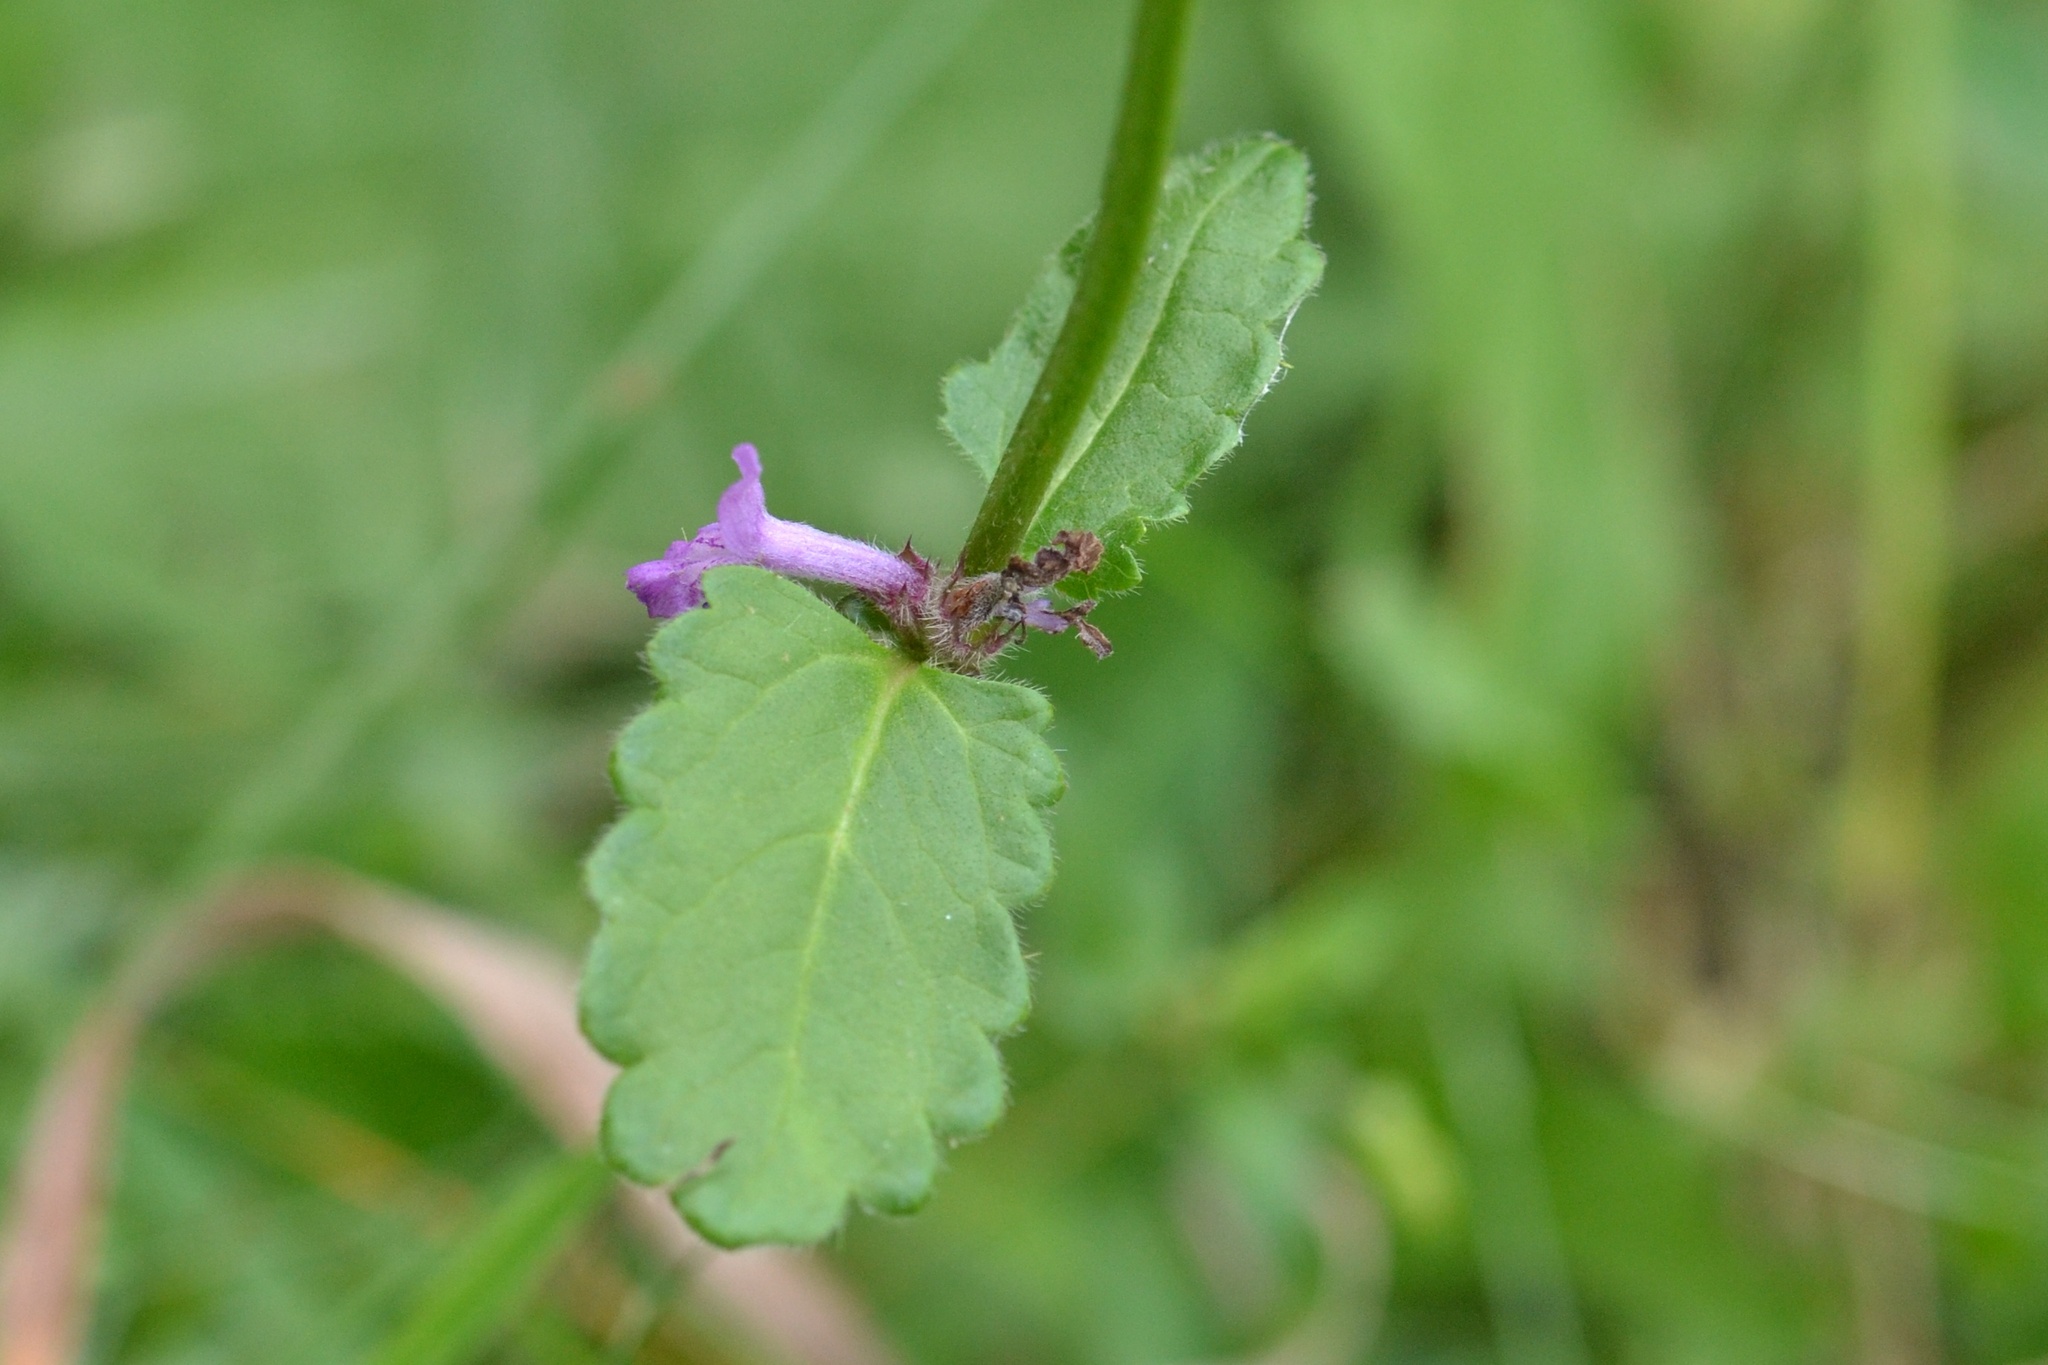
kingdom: Plantae
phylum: Tracheophyta
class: Magnoliopsida
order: Lamiales
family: Lamiaceae
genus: Betonica
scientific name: Betonica officinalis
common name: Bishop's-wort
